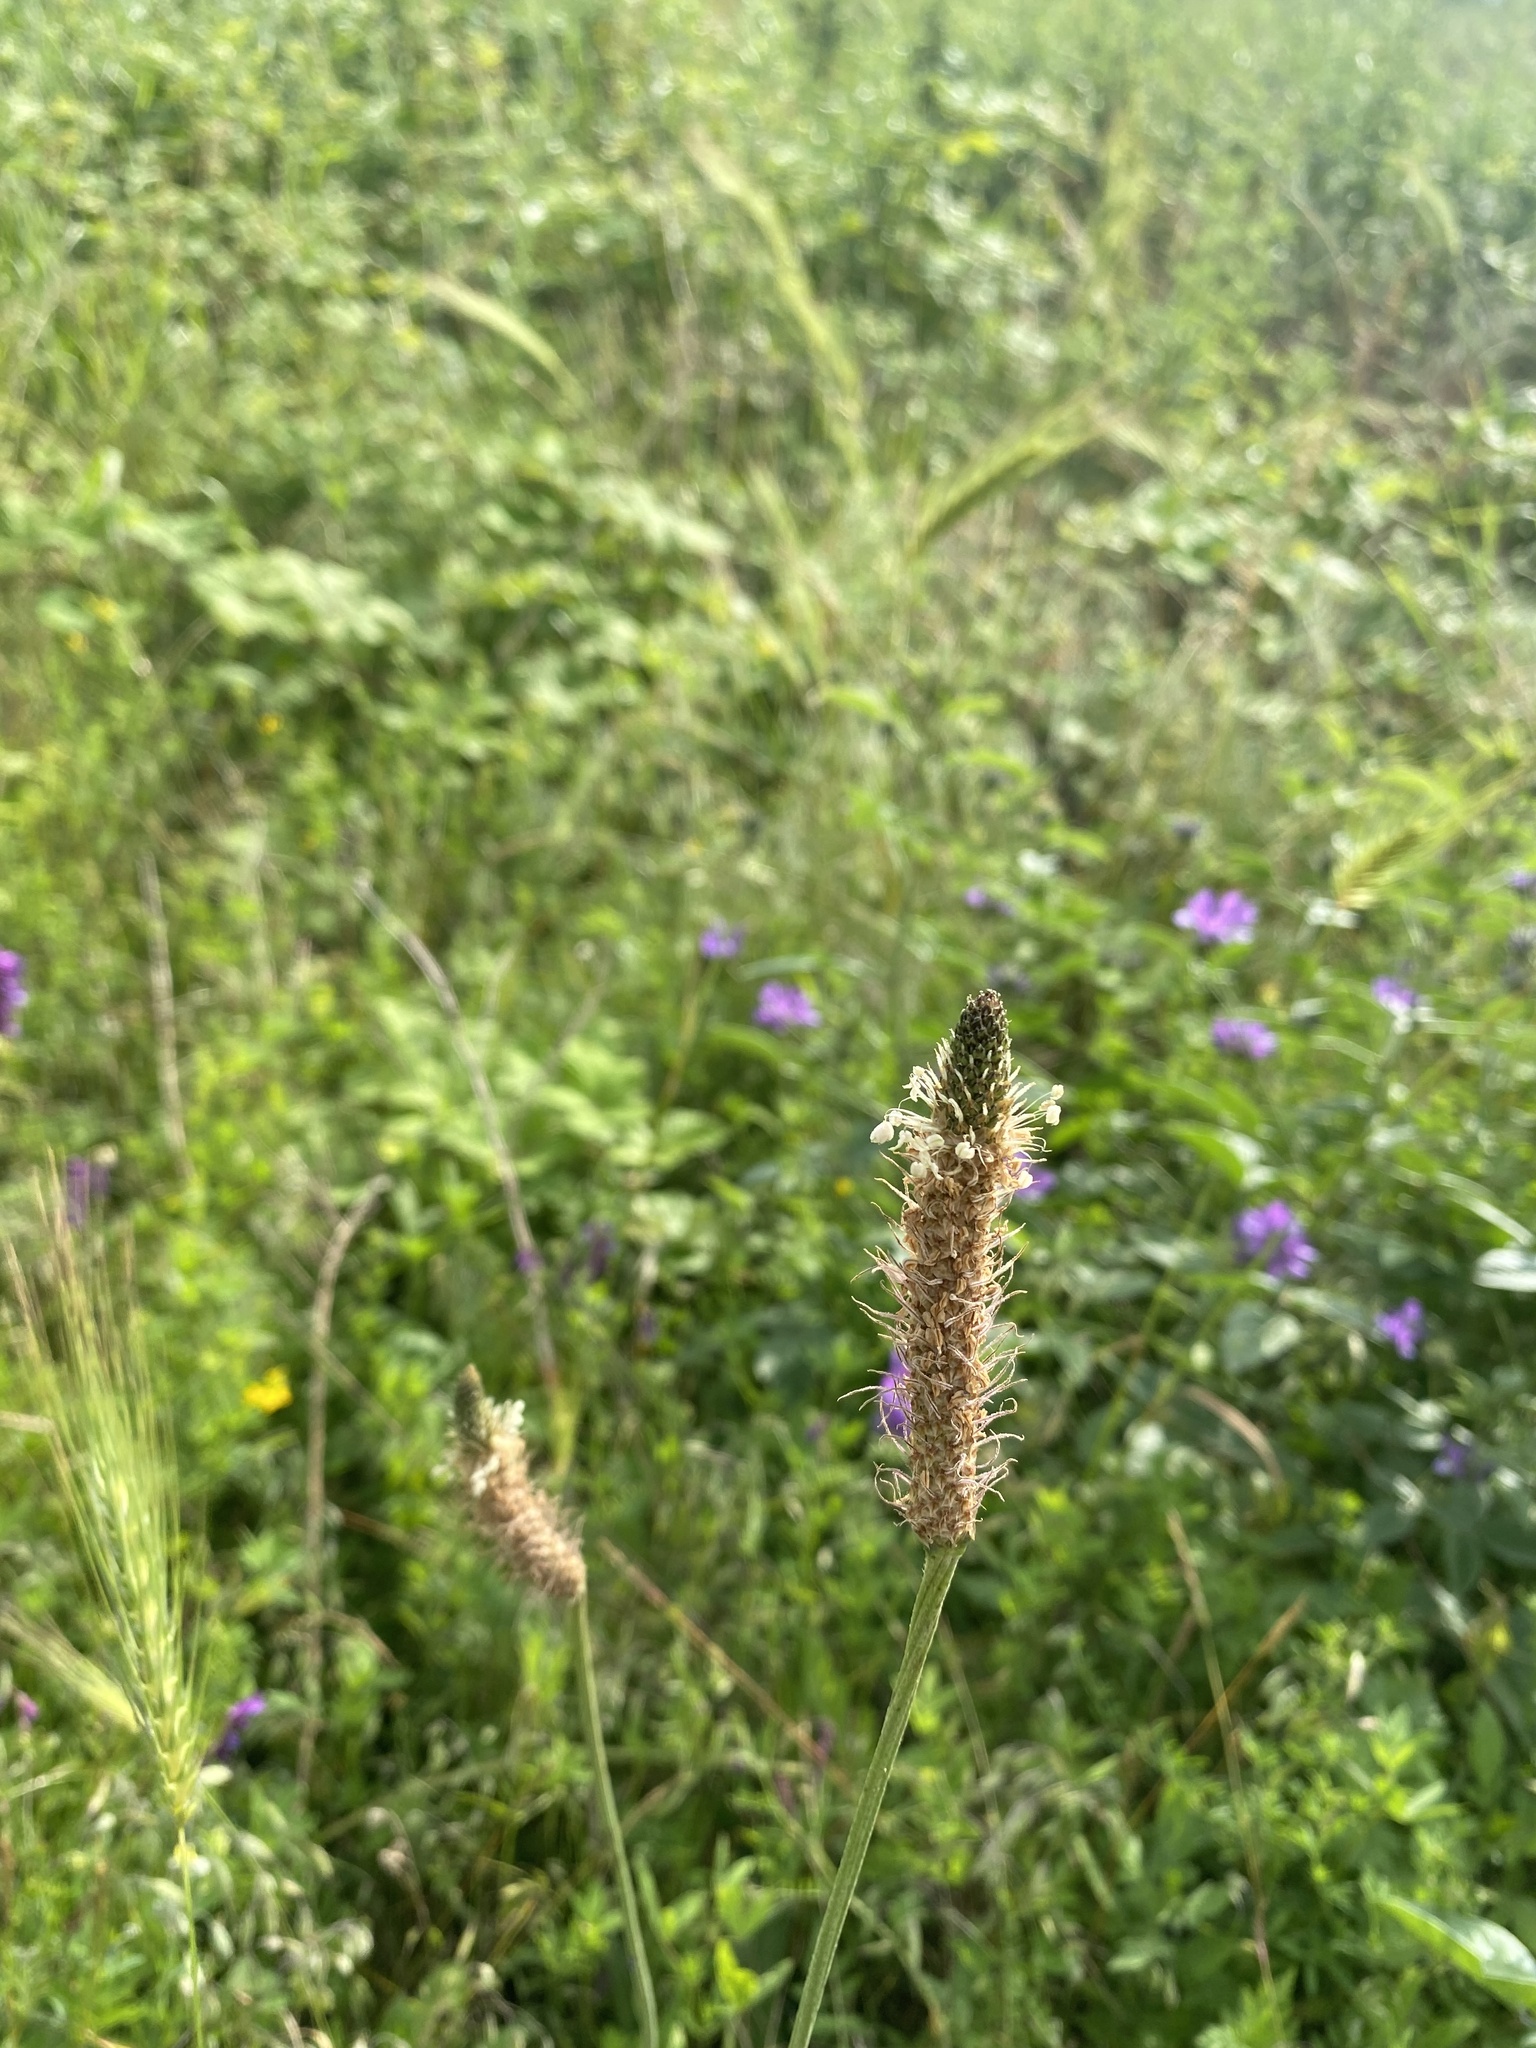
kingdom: Plantae
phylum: Tracheophyta
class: Magnoliopsida
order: Lamiales
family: Plantaginaceae
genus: Plantago
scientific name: Plantago lanceolata
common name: Ribwort plantain
